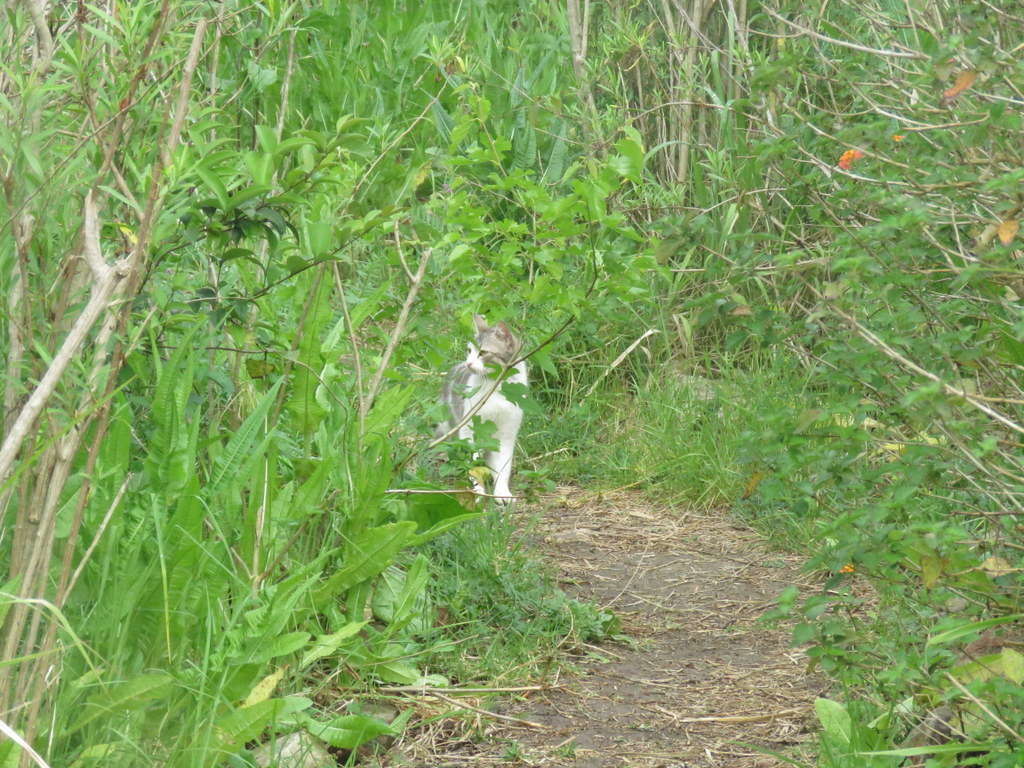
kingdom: Animalia
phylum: Chordata
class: Mammalia
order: Carnivora
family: Felidae
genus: Felis
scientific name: Felis catus
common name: Domestic cat
